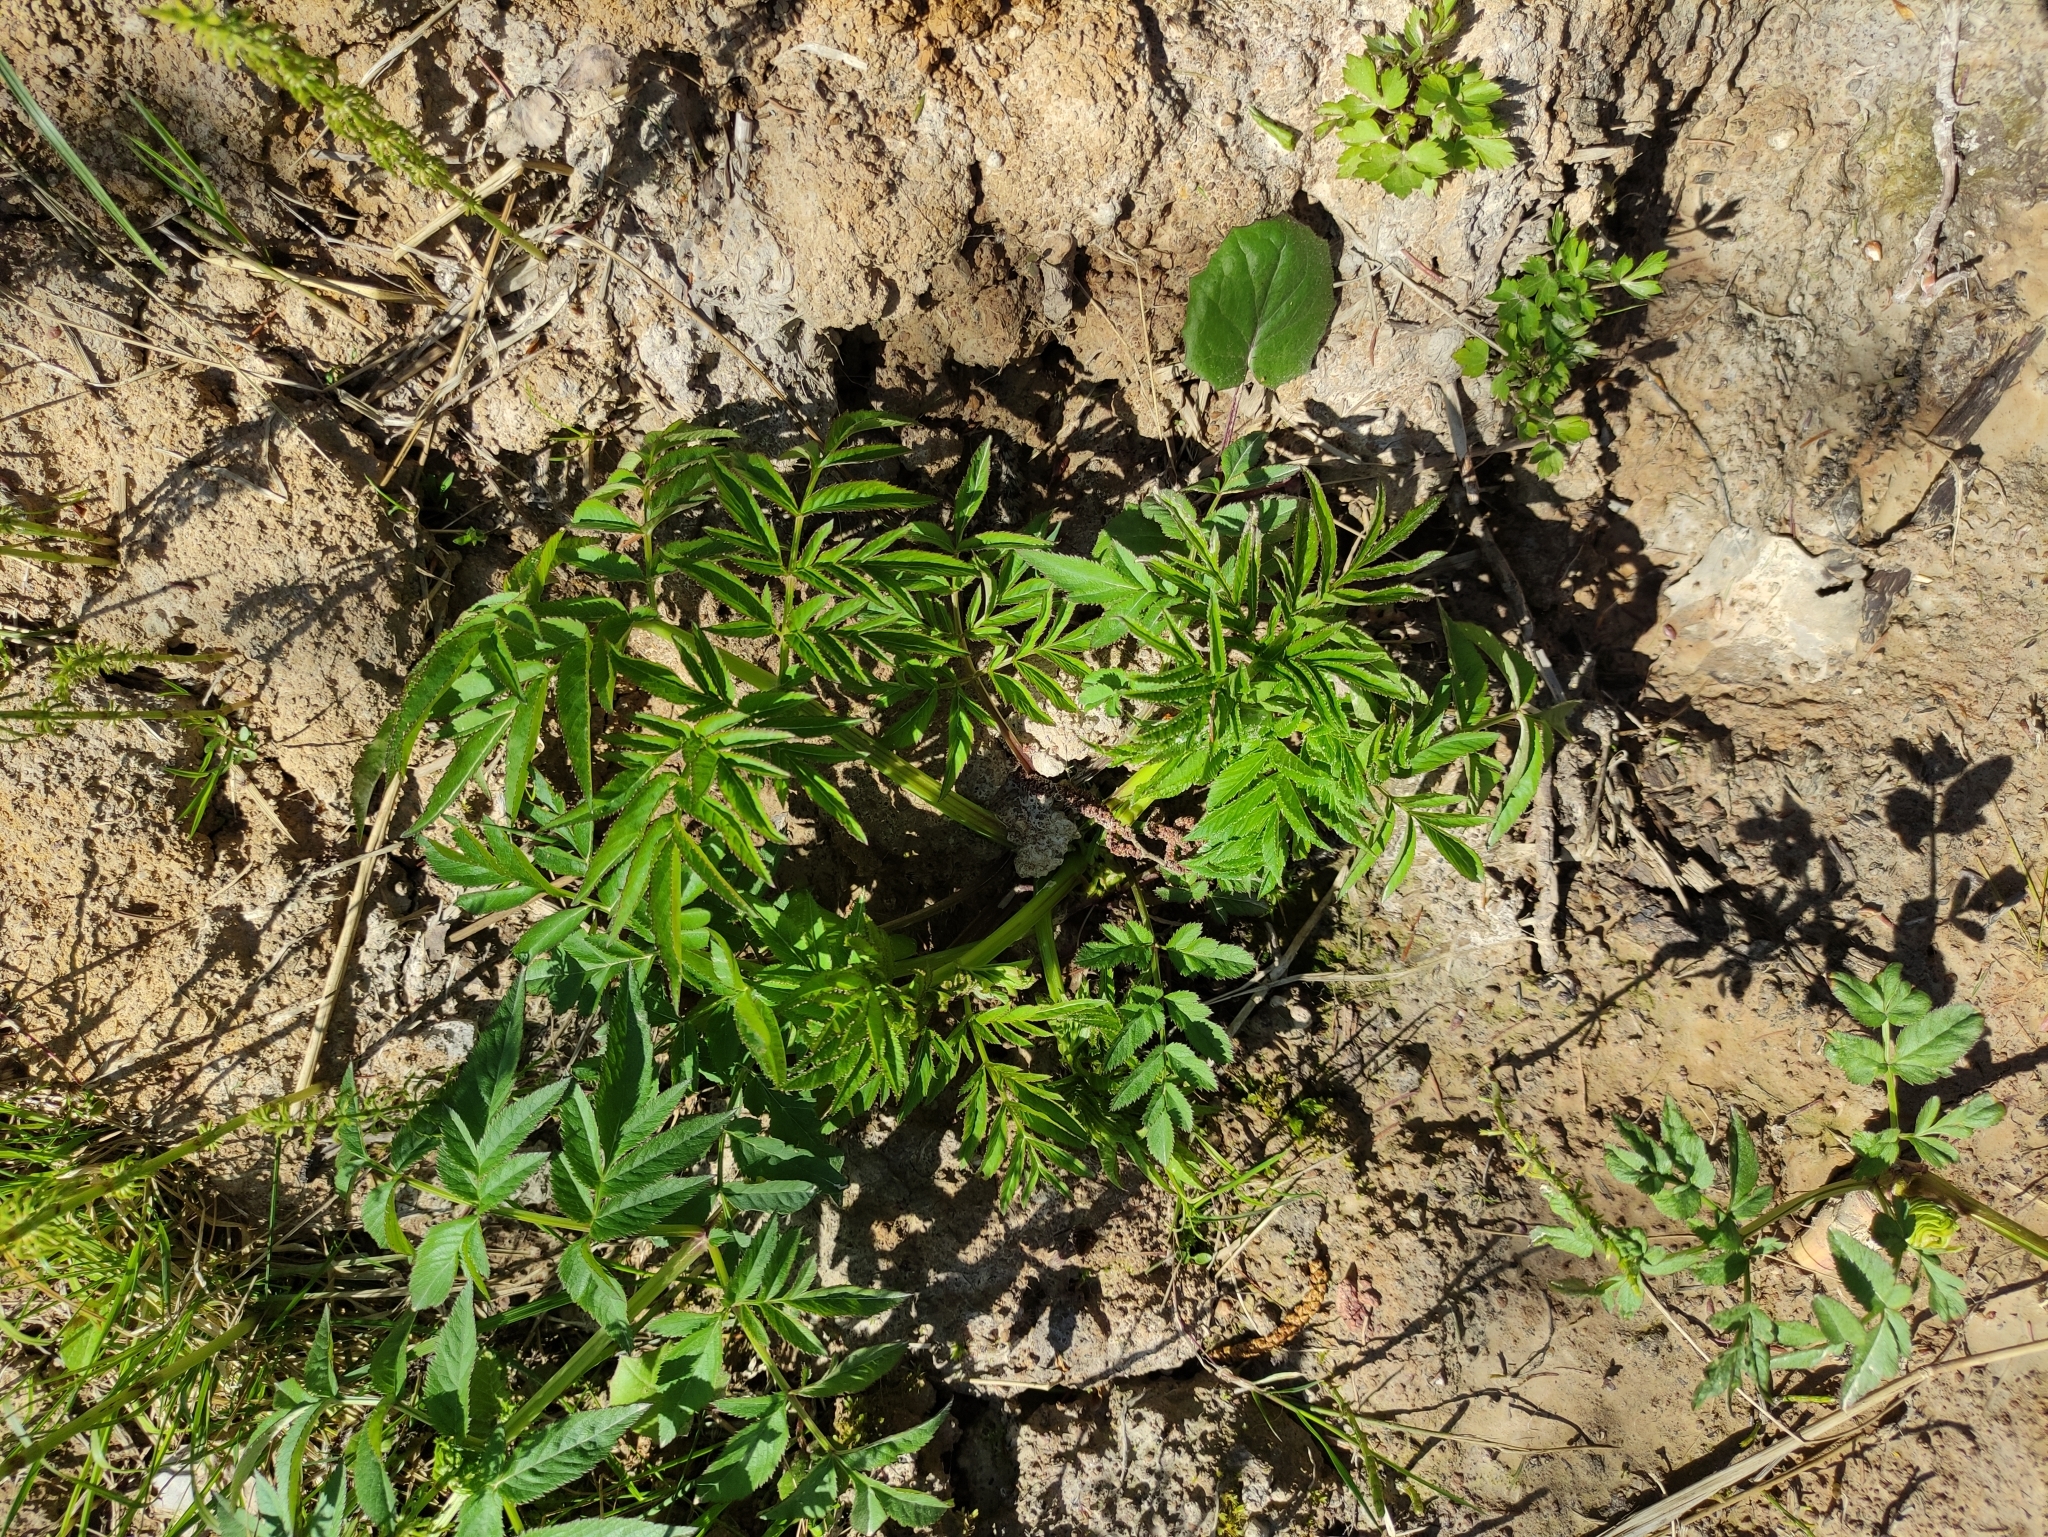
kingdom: Plantae
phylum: Tracheophyta
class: Magnoliopsida
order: Apiales
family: Apiaceae
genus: Angelica
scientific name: Angelica sylvestris
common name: Wild angelica
